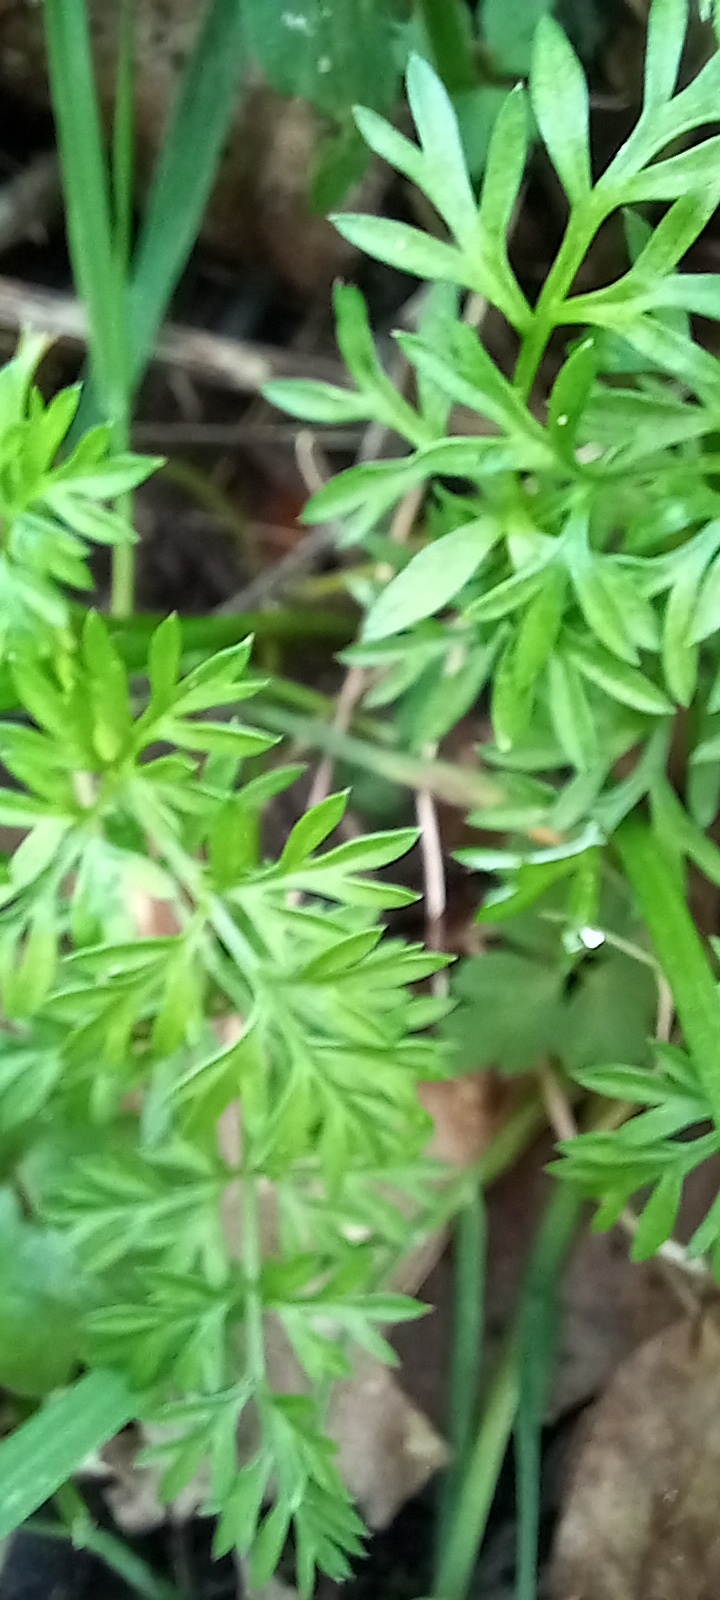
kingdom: Plantae
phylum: Tracheophyta
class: Magnoliopsida
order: Apiales
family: Apiaceae
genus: Conopodium
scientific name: Conopodium majus
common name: Pignut
